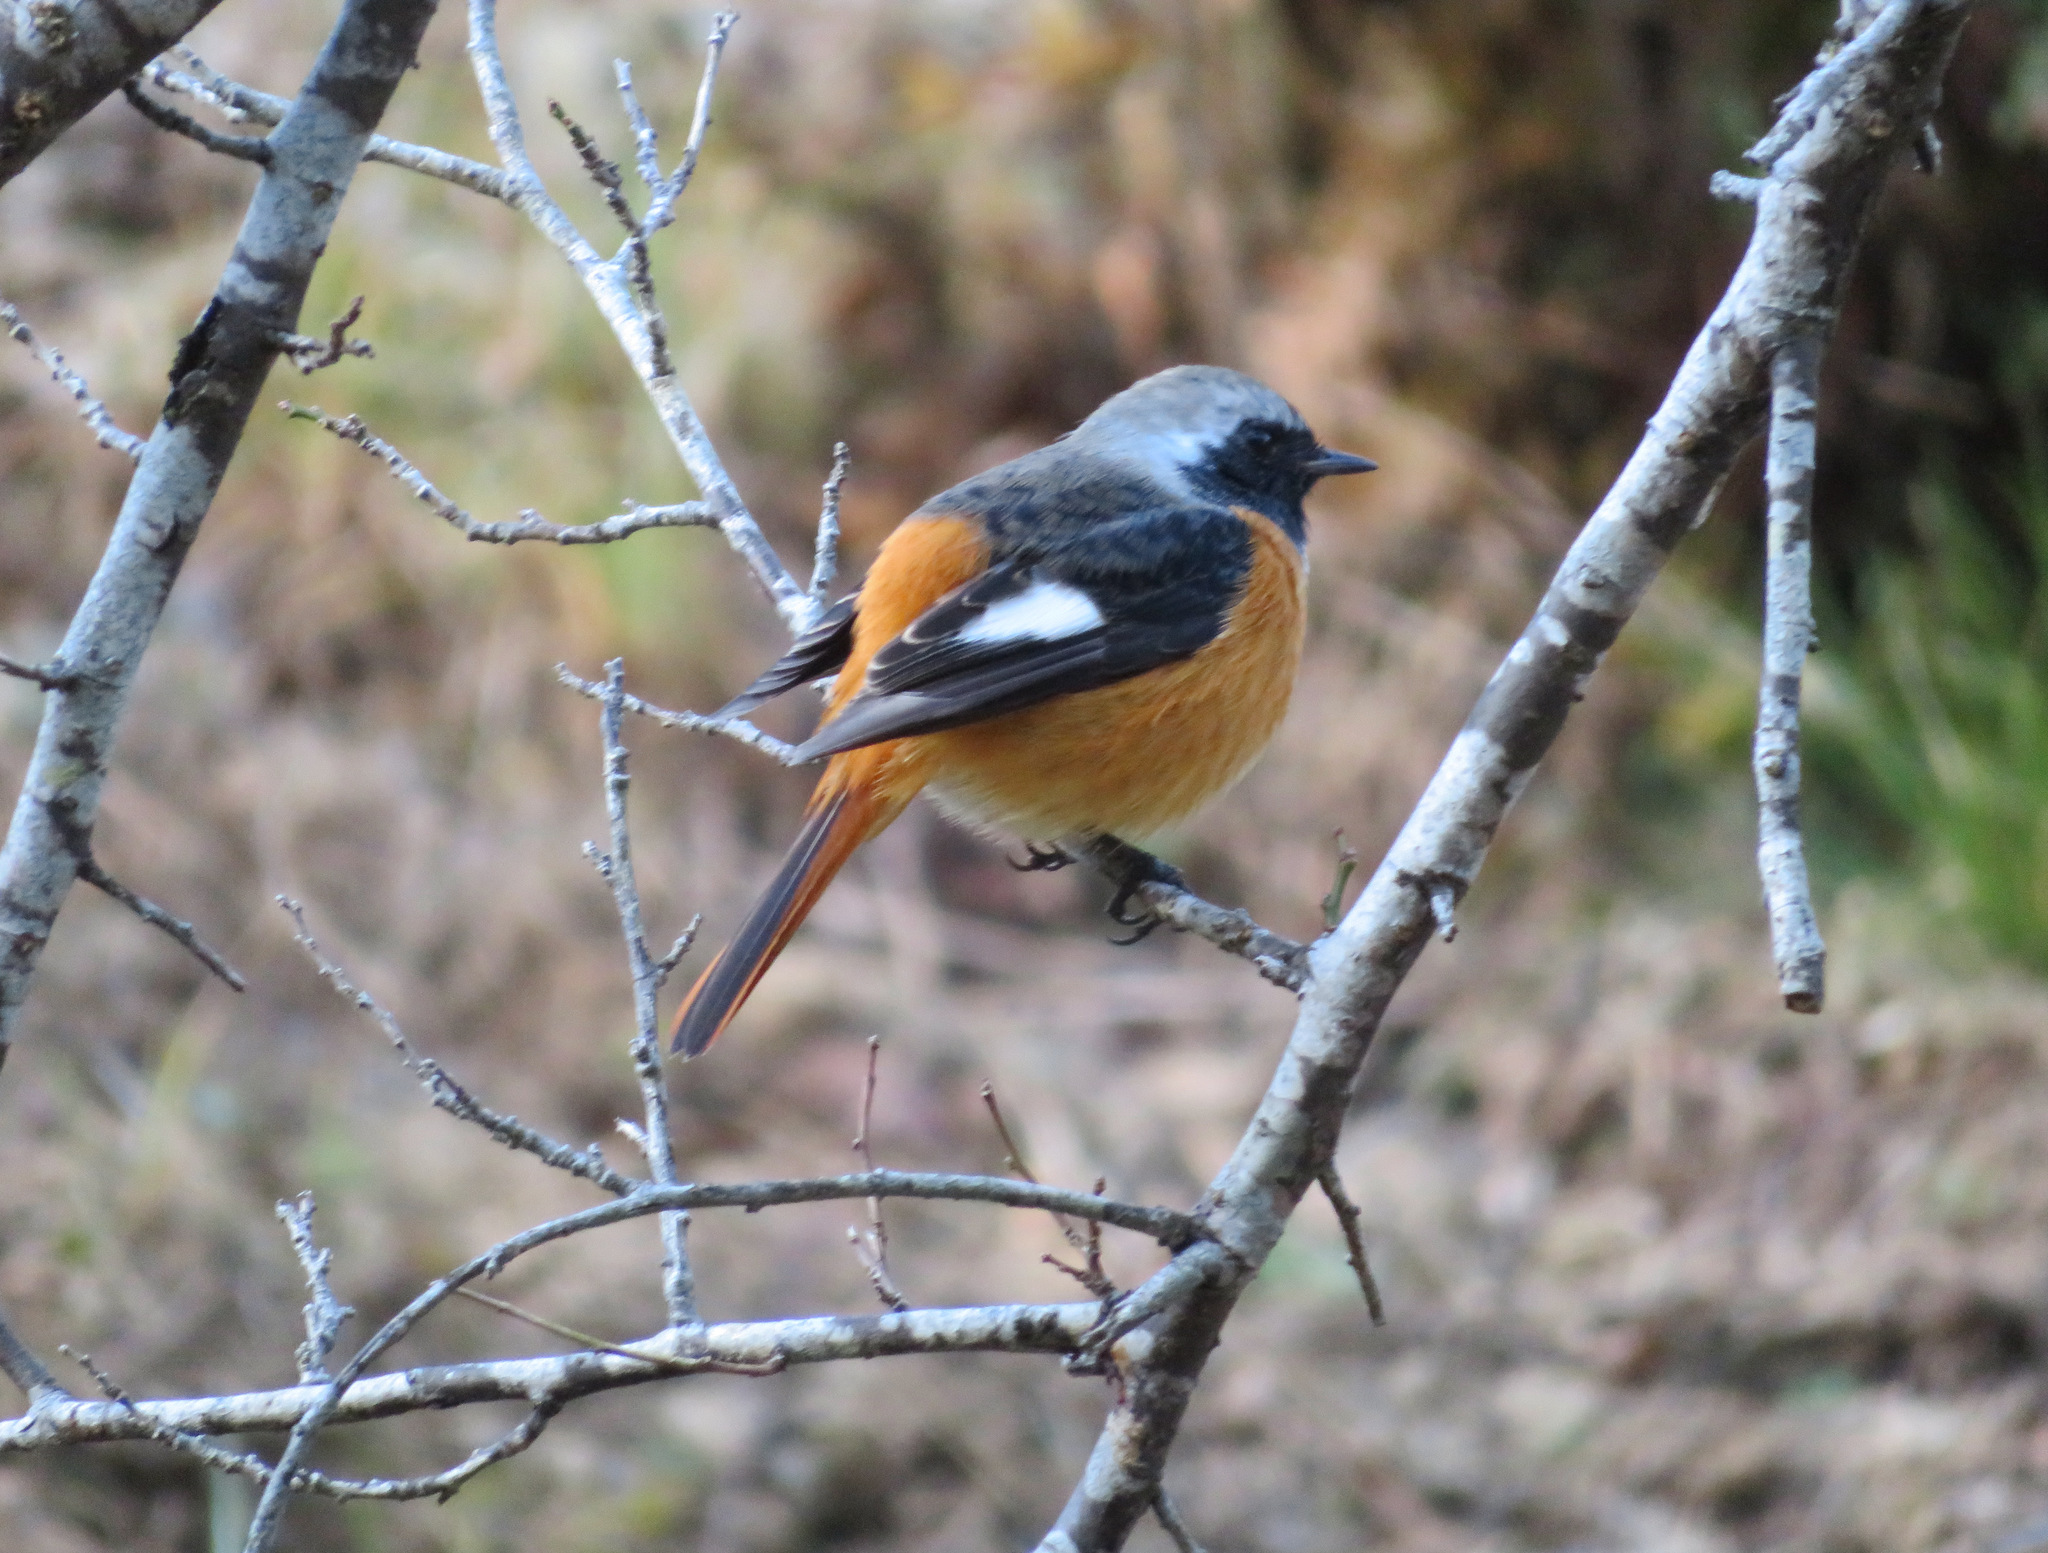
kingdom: Animalia
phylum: Chordata
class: Aves
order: Passeriformes
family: Muscicapidae
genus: Phoenicurus
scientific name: Phoenicurus auroreus
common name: Daurian redstart
